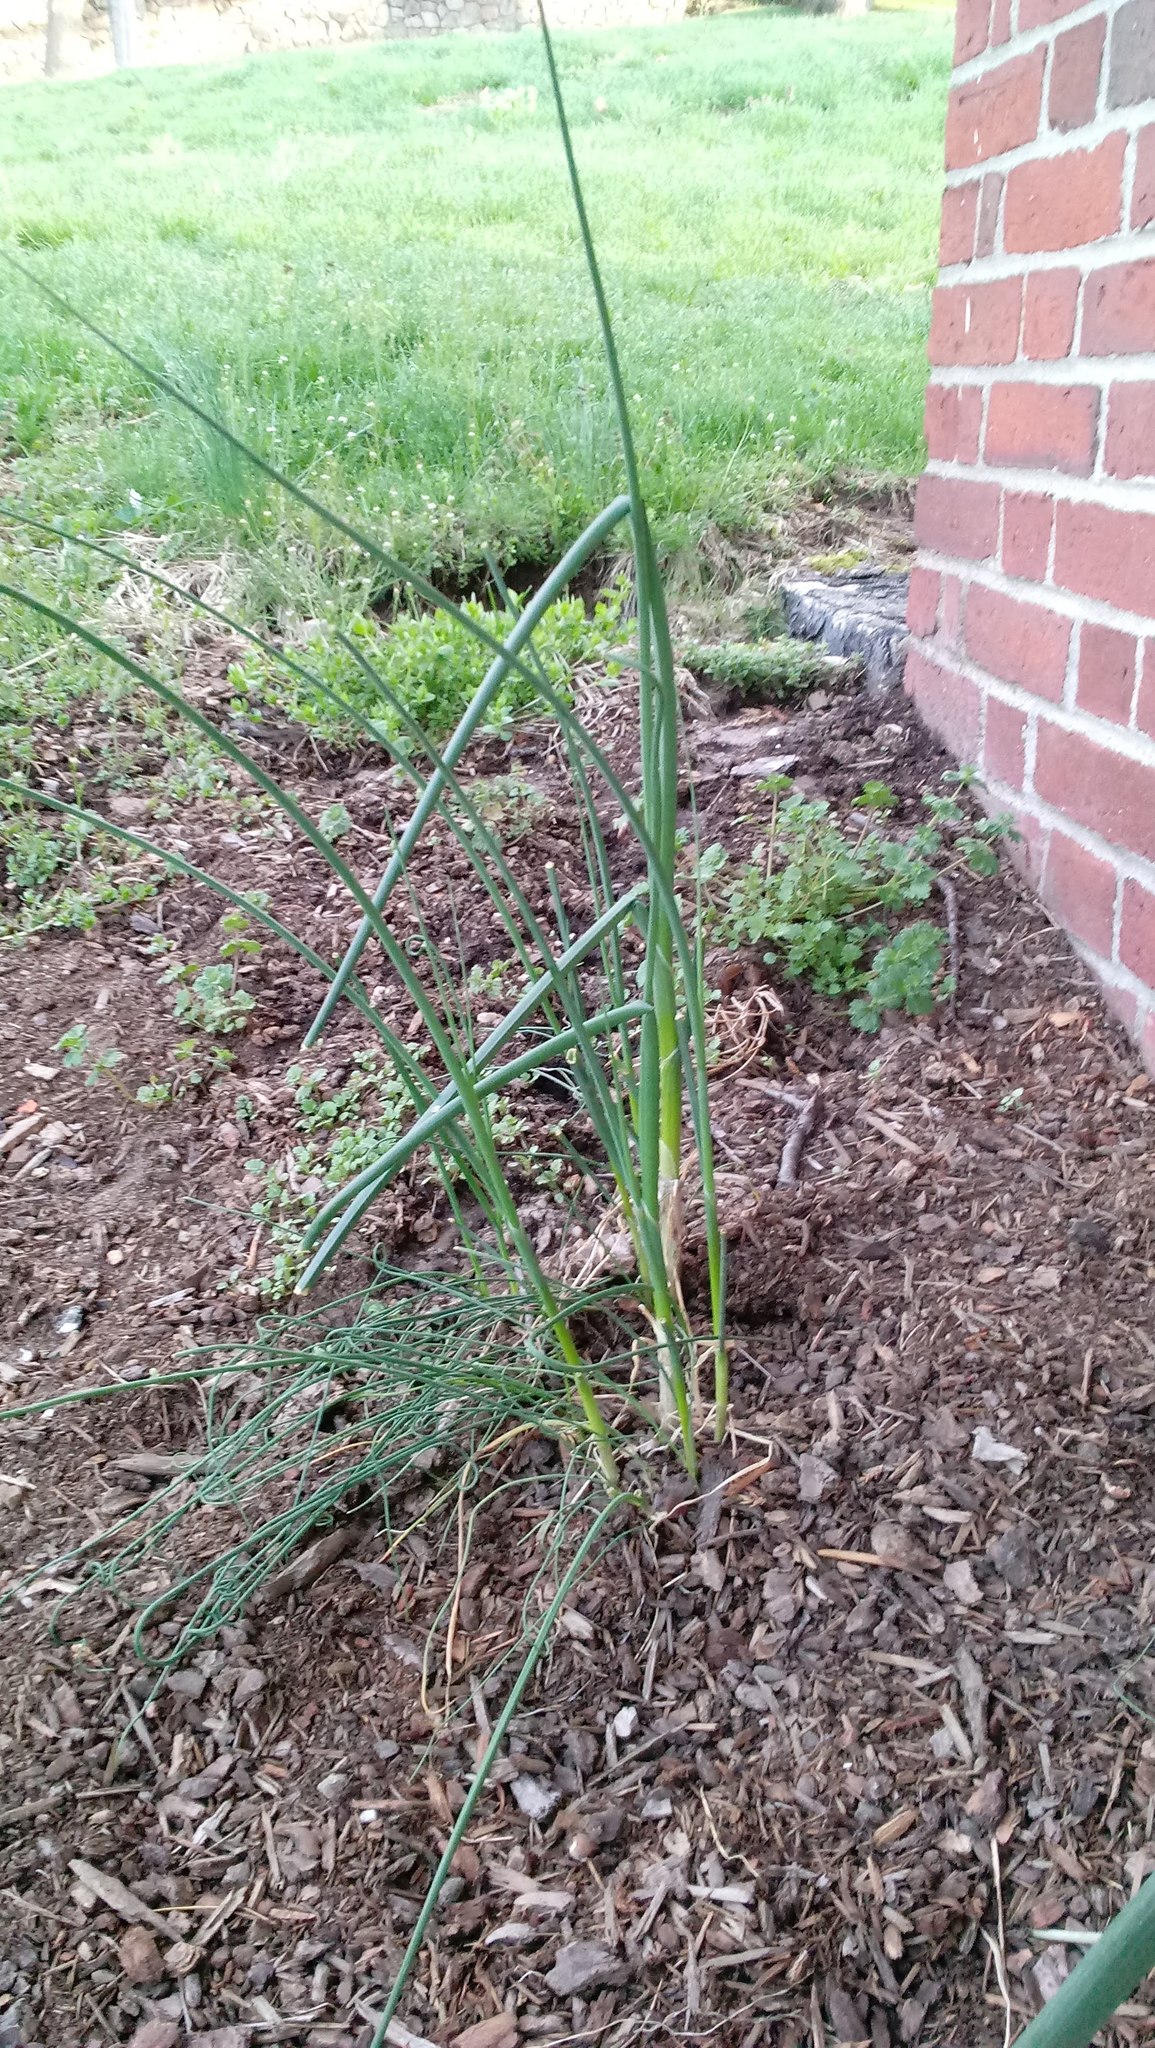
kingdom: Plantae
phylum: Tracheophyta
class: Liliopsida
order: Asparagales
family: Amaryllidaceae
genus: Allium
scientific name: Allium vineale
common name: Crow garlic
